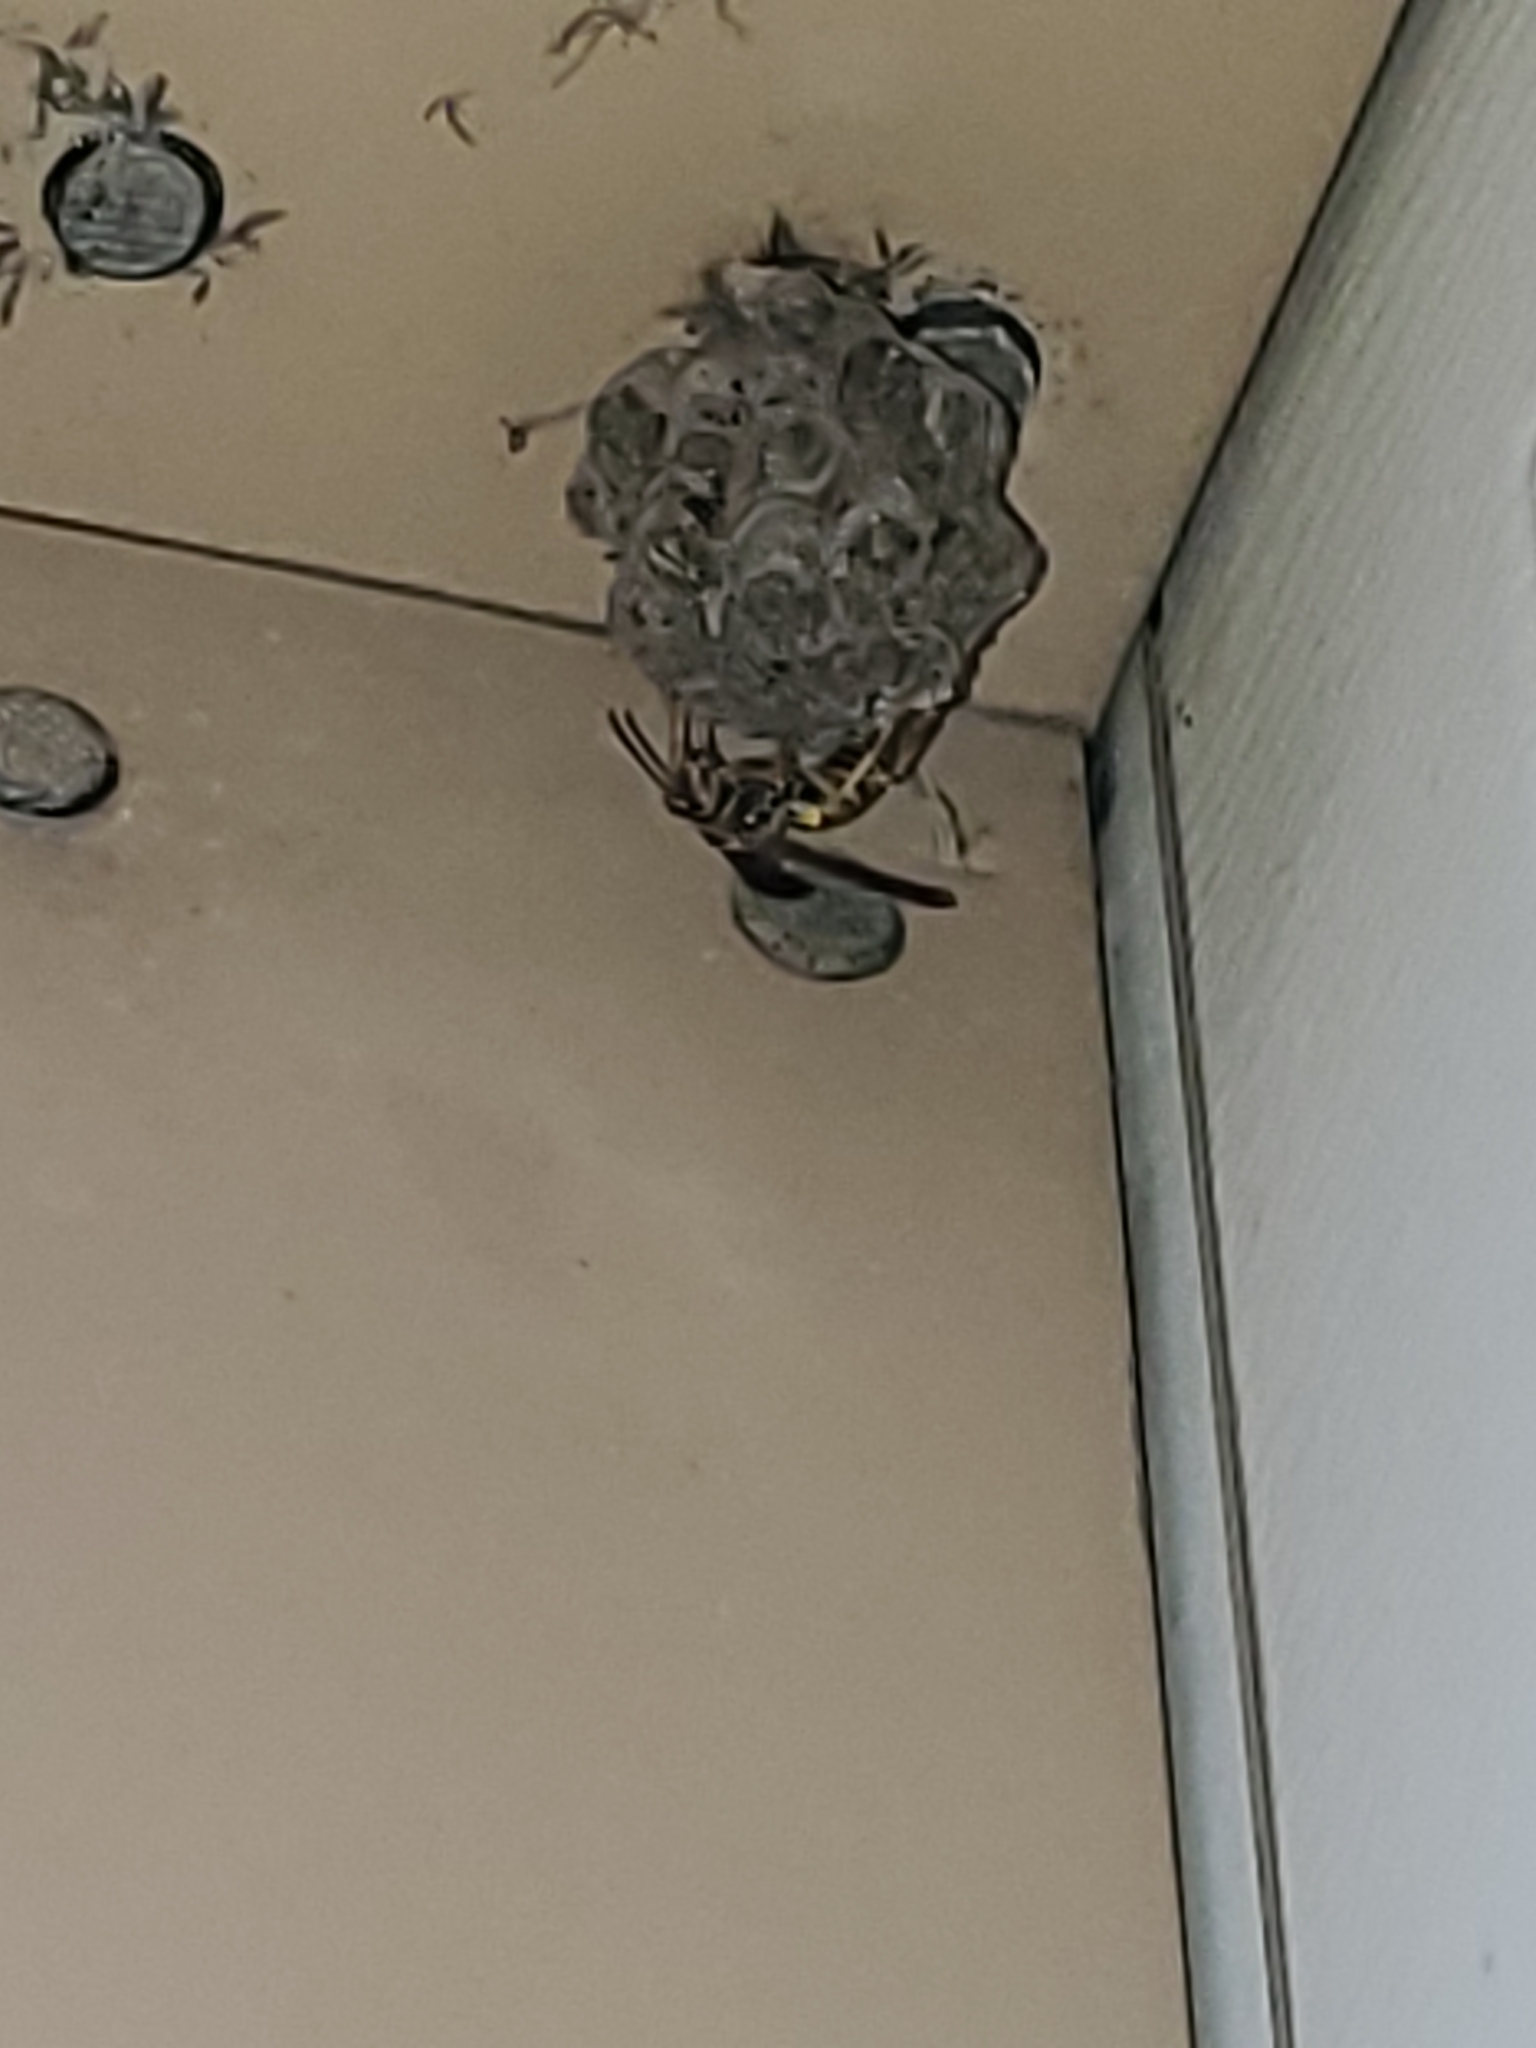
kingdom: Animalia
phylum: Arthropoda
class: Insecta
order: Hymenoptera
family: Eumenidae
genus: Polistes
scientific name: Polistes
